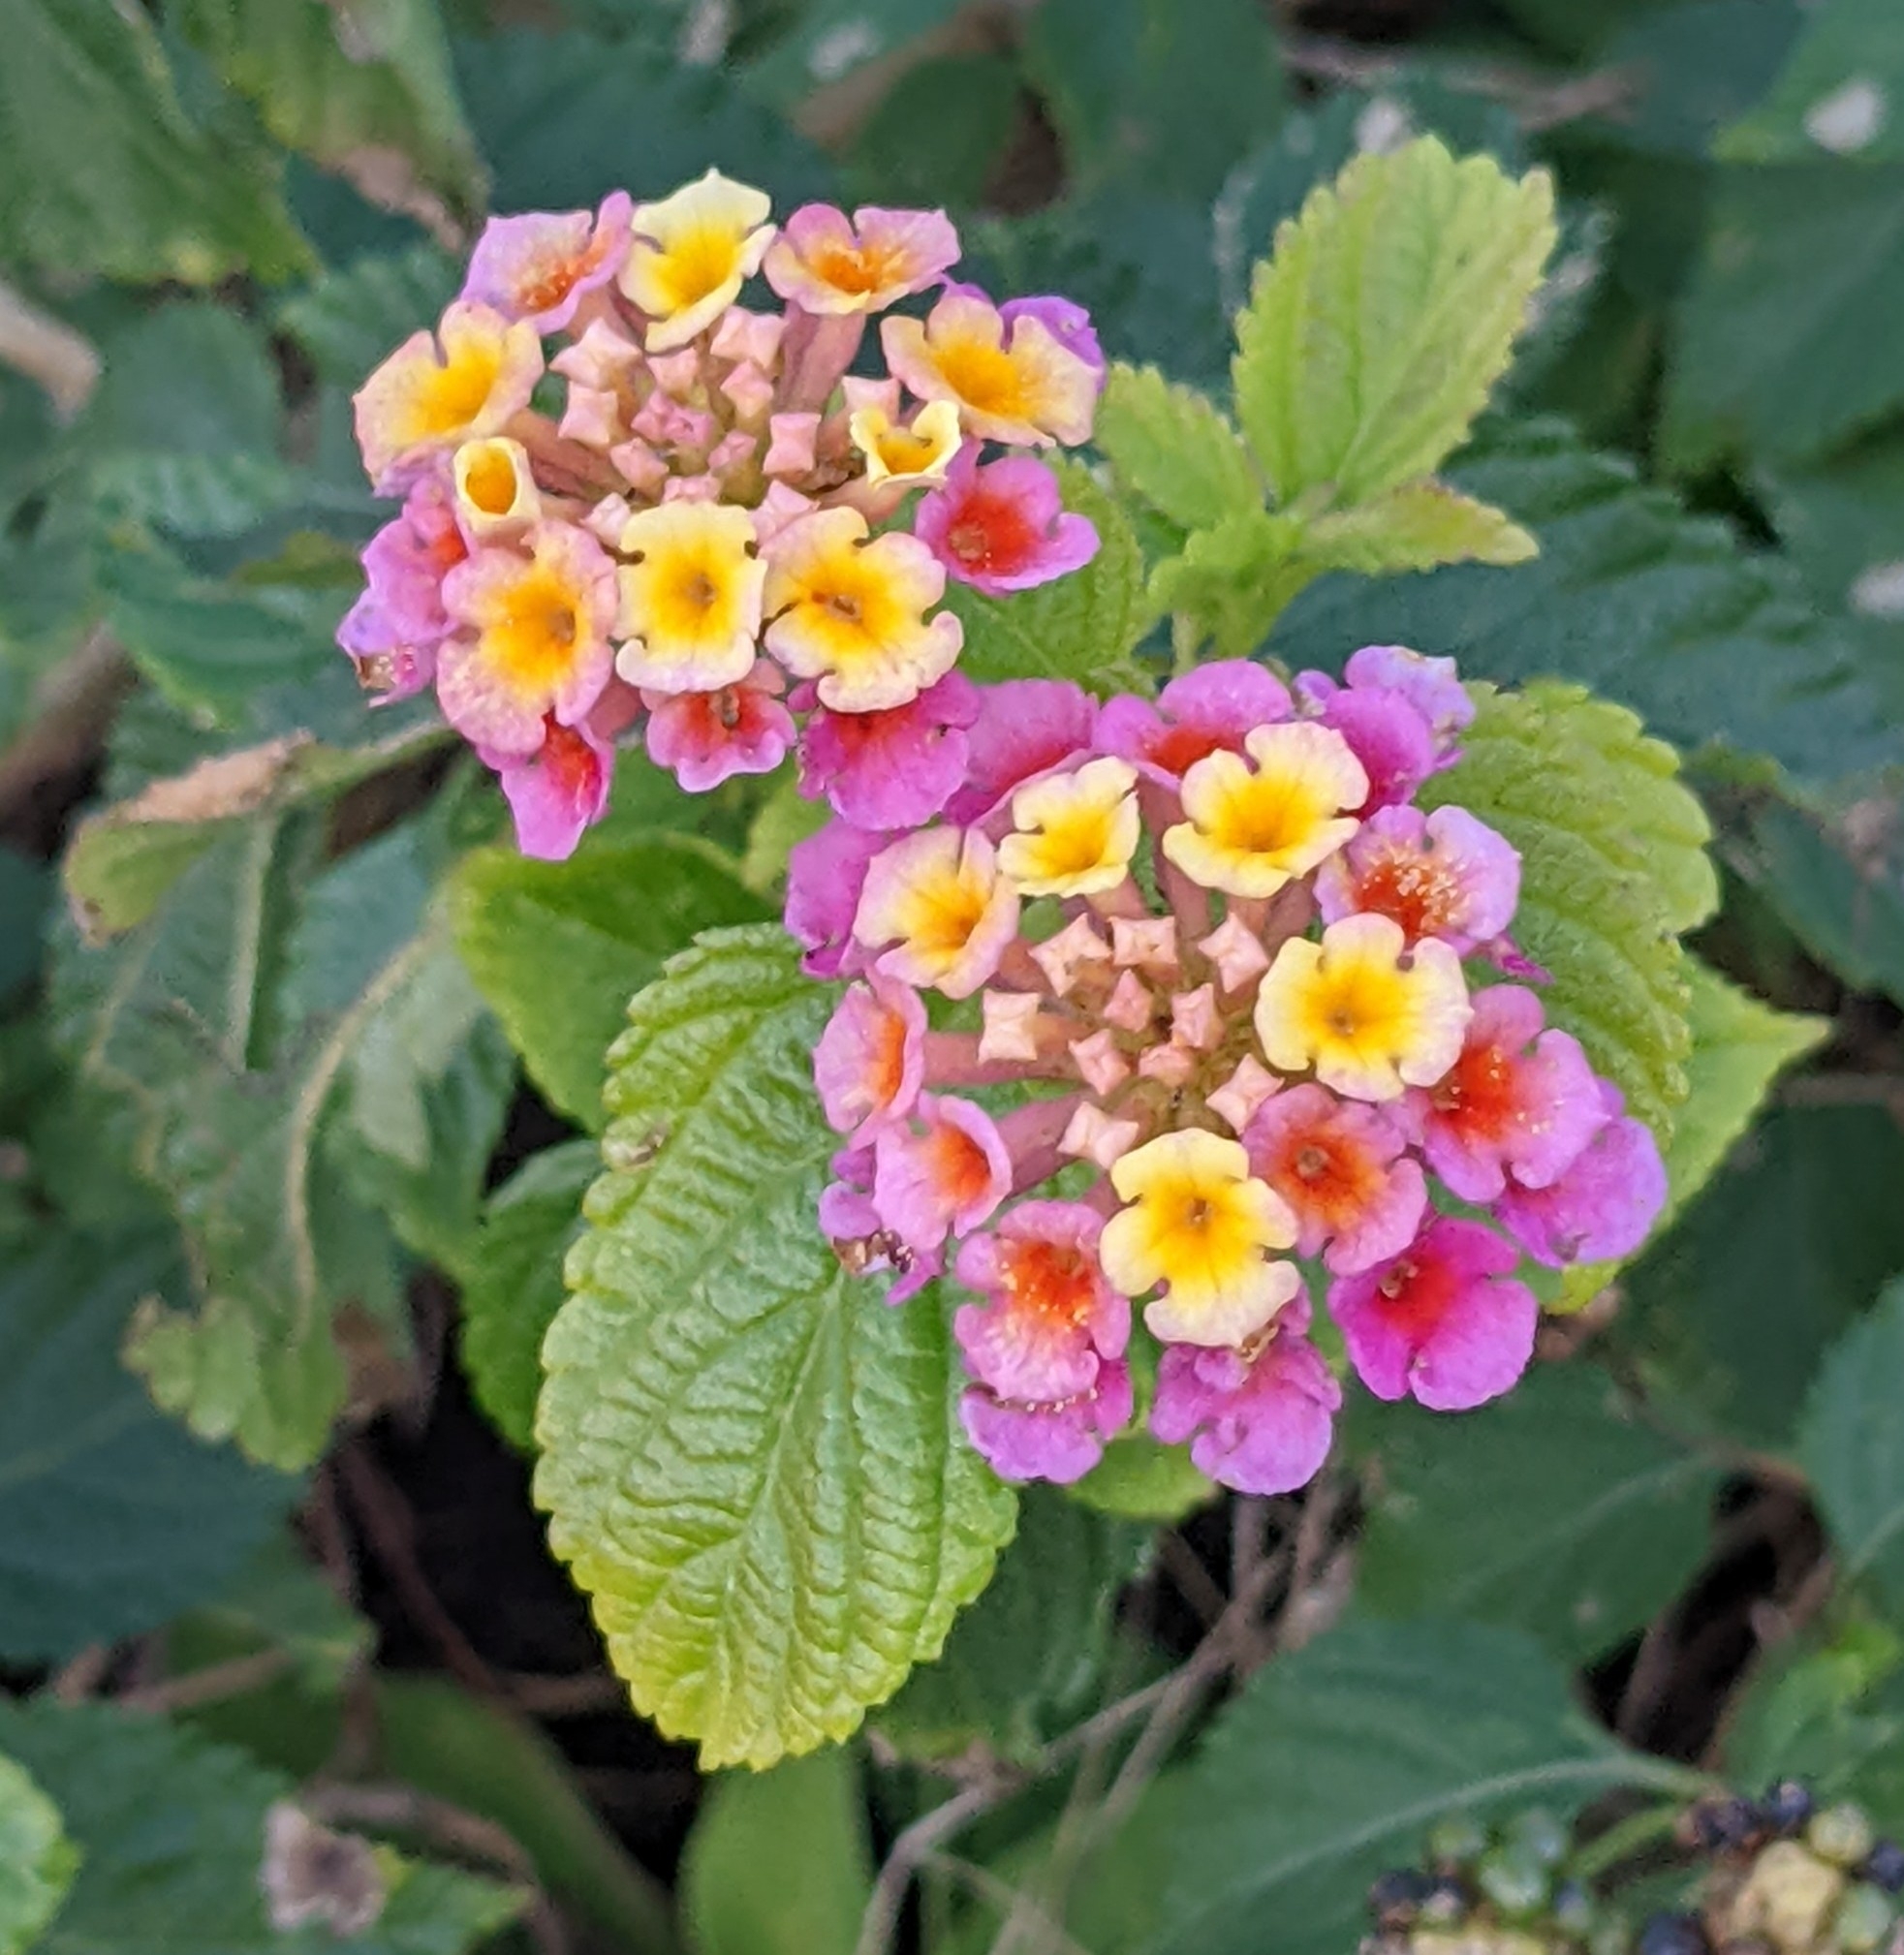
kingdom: Plantae
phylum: Tracheophyta
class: Magnoliopsida
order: Lamiales
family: Verbenaceae
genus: Lantana
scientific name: Lantana strigocamara
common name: Lantana
